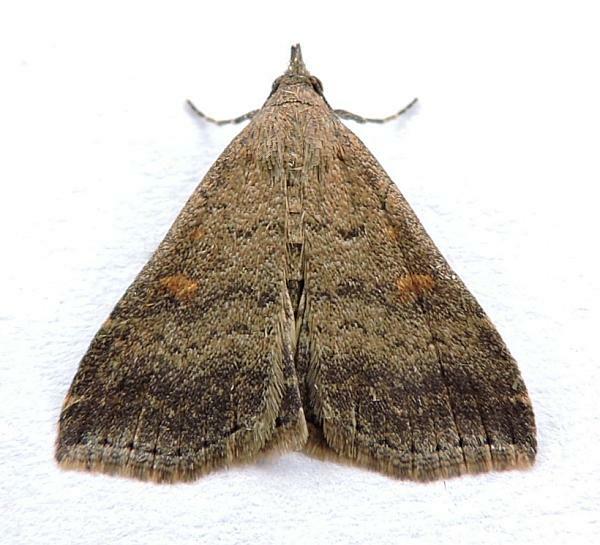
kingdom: Animalia
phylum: Arthropoda
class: Insecta
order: Lepidoptera
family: Erebidae
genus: Tetanolita
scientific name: Tetanolita floridana
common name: Florida tetanolita moth
